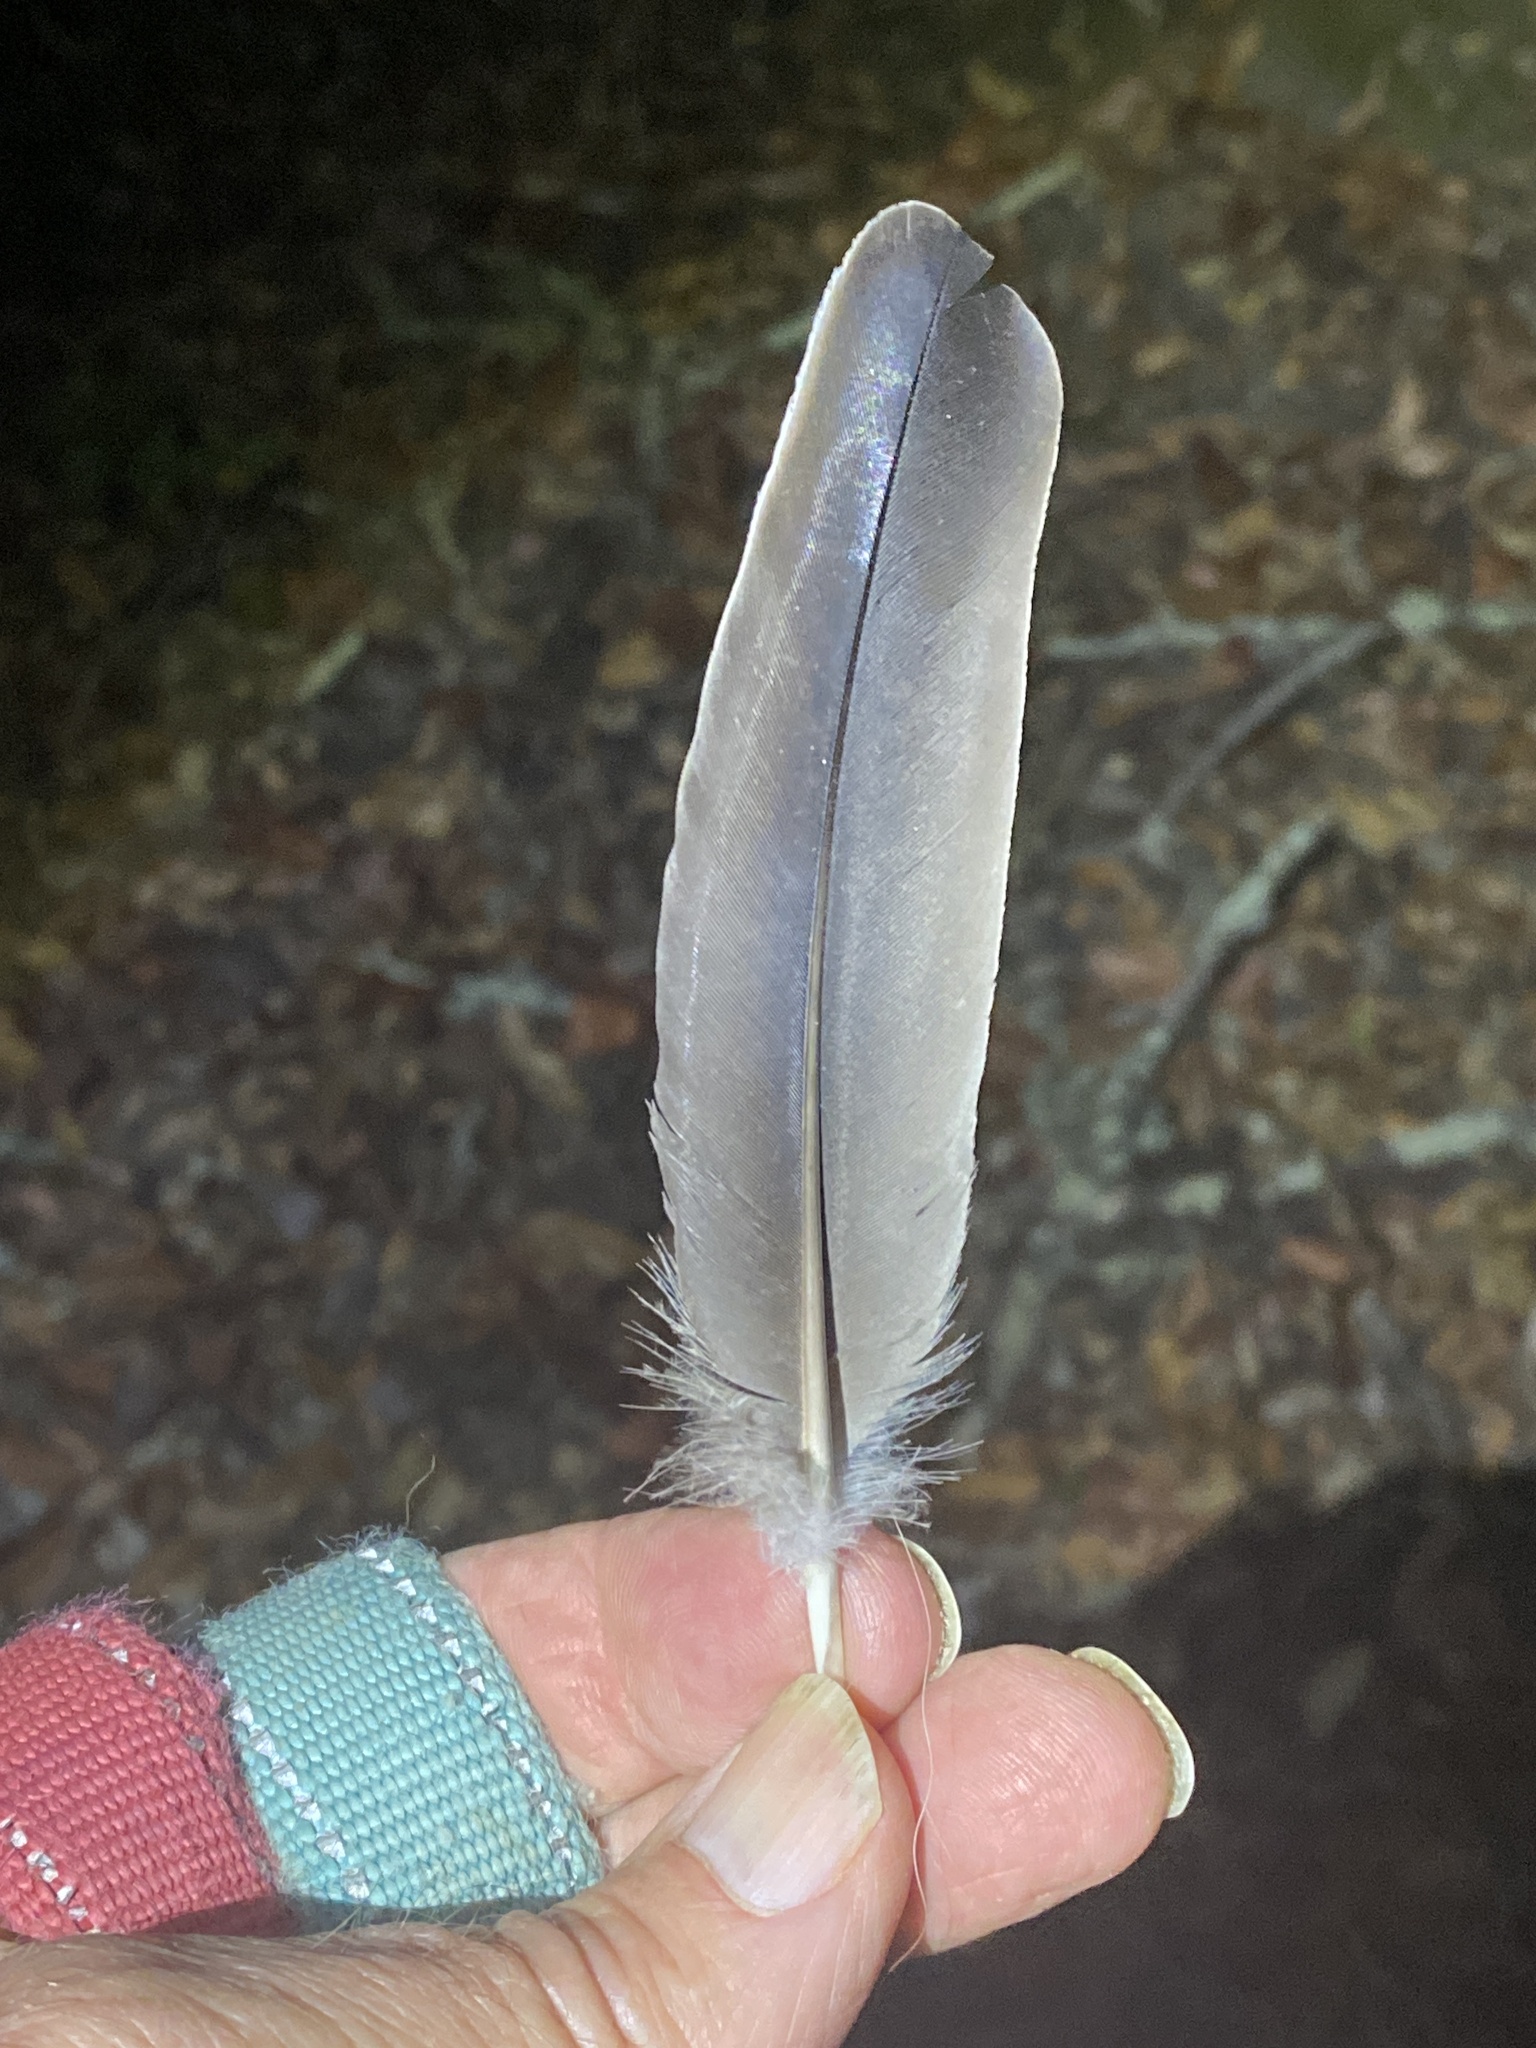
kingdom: Animalia
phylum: Chordata
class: Aves
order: Columbiformes
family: Columbidae
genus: Patagioenas
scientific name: Patagioenas fasciata
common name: Band-tailed pigeon
